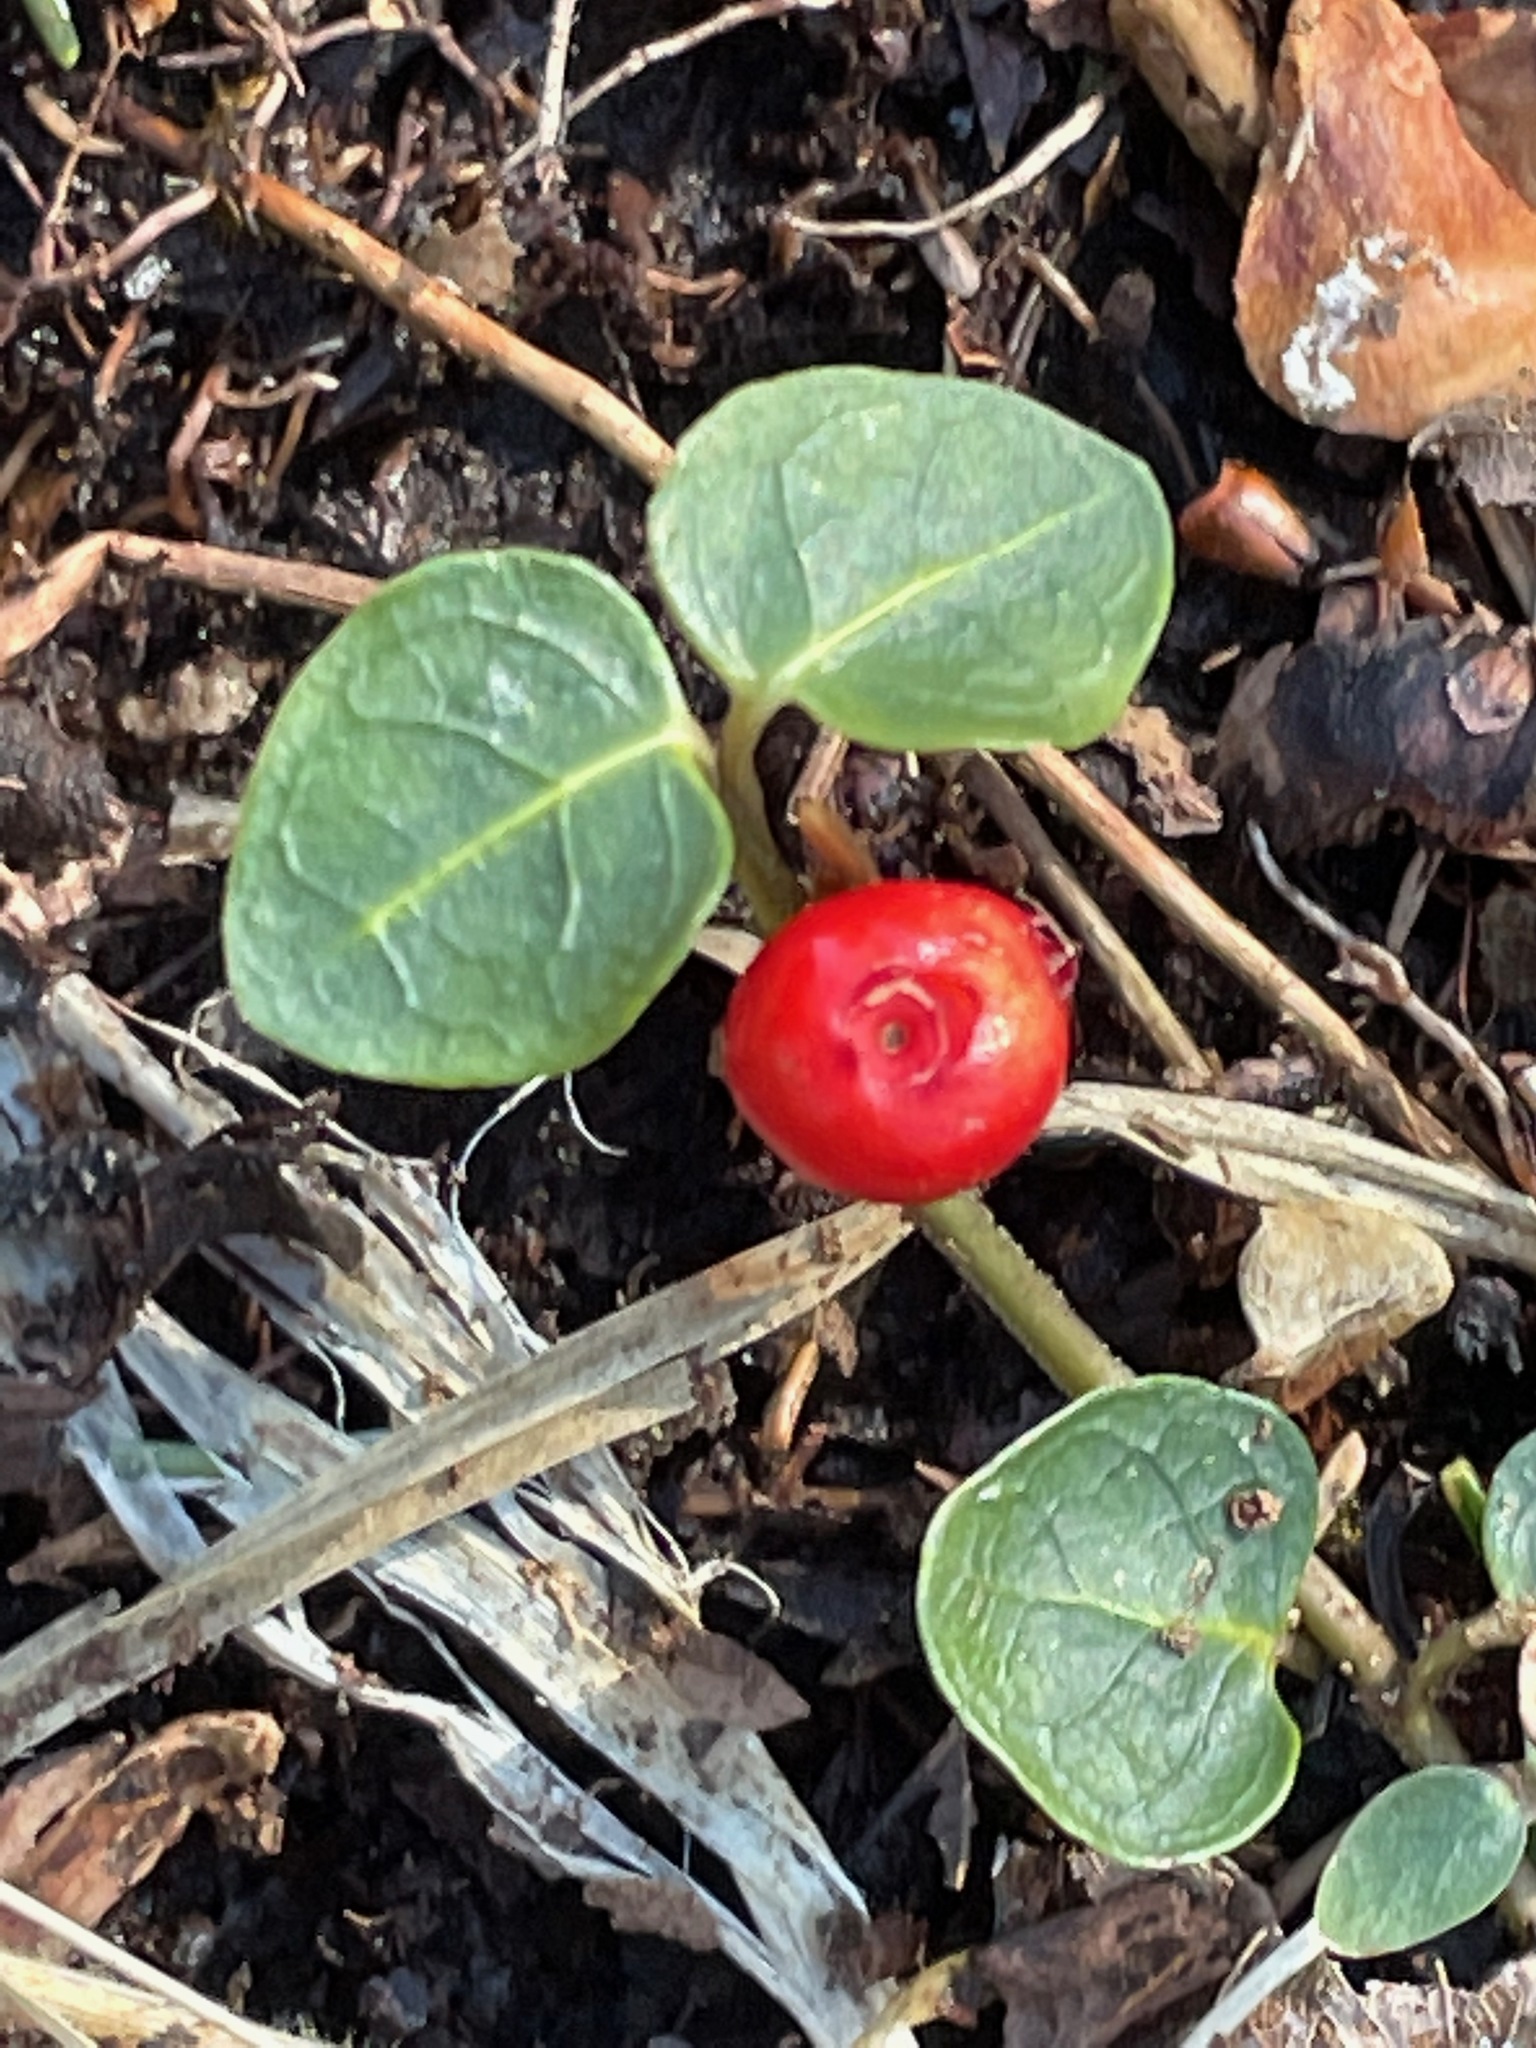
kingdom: Plantae
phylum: Tracheophyta
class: Magnoliopsida
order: Gentianales
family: Rubiaceae
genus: Mitchella
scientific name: Mitchella repens
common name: Partridge-berry
